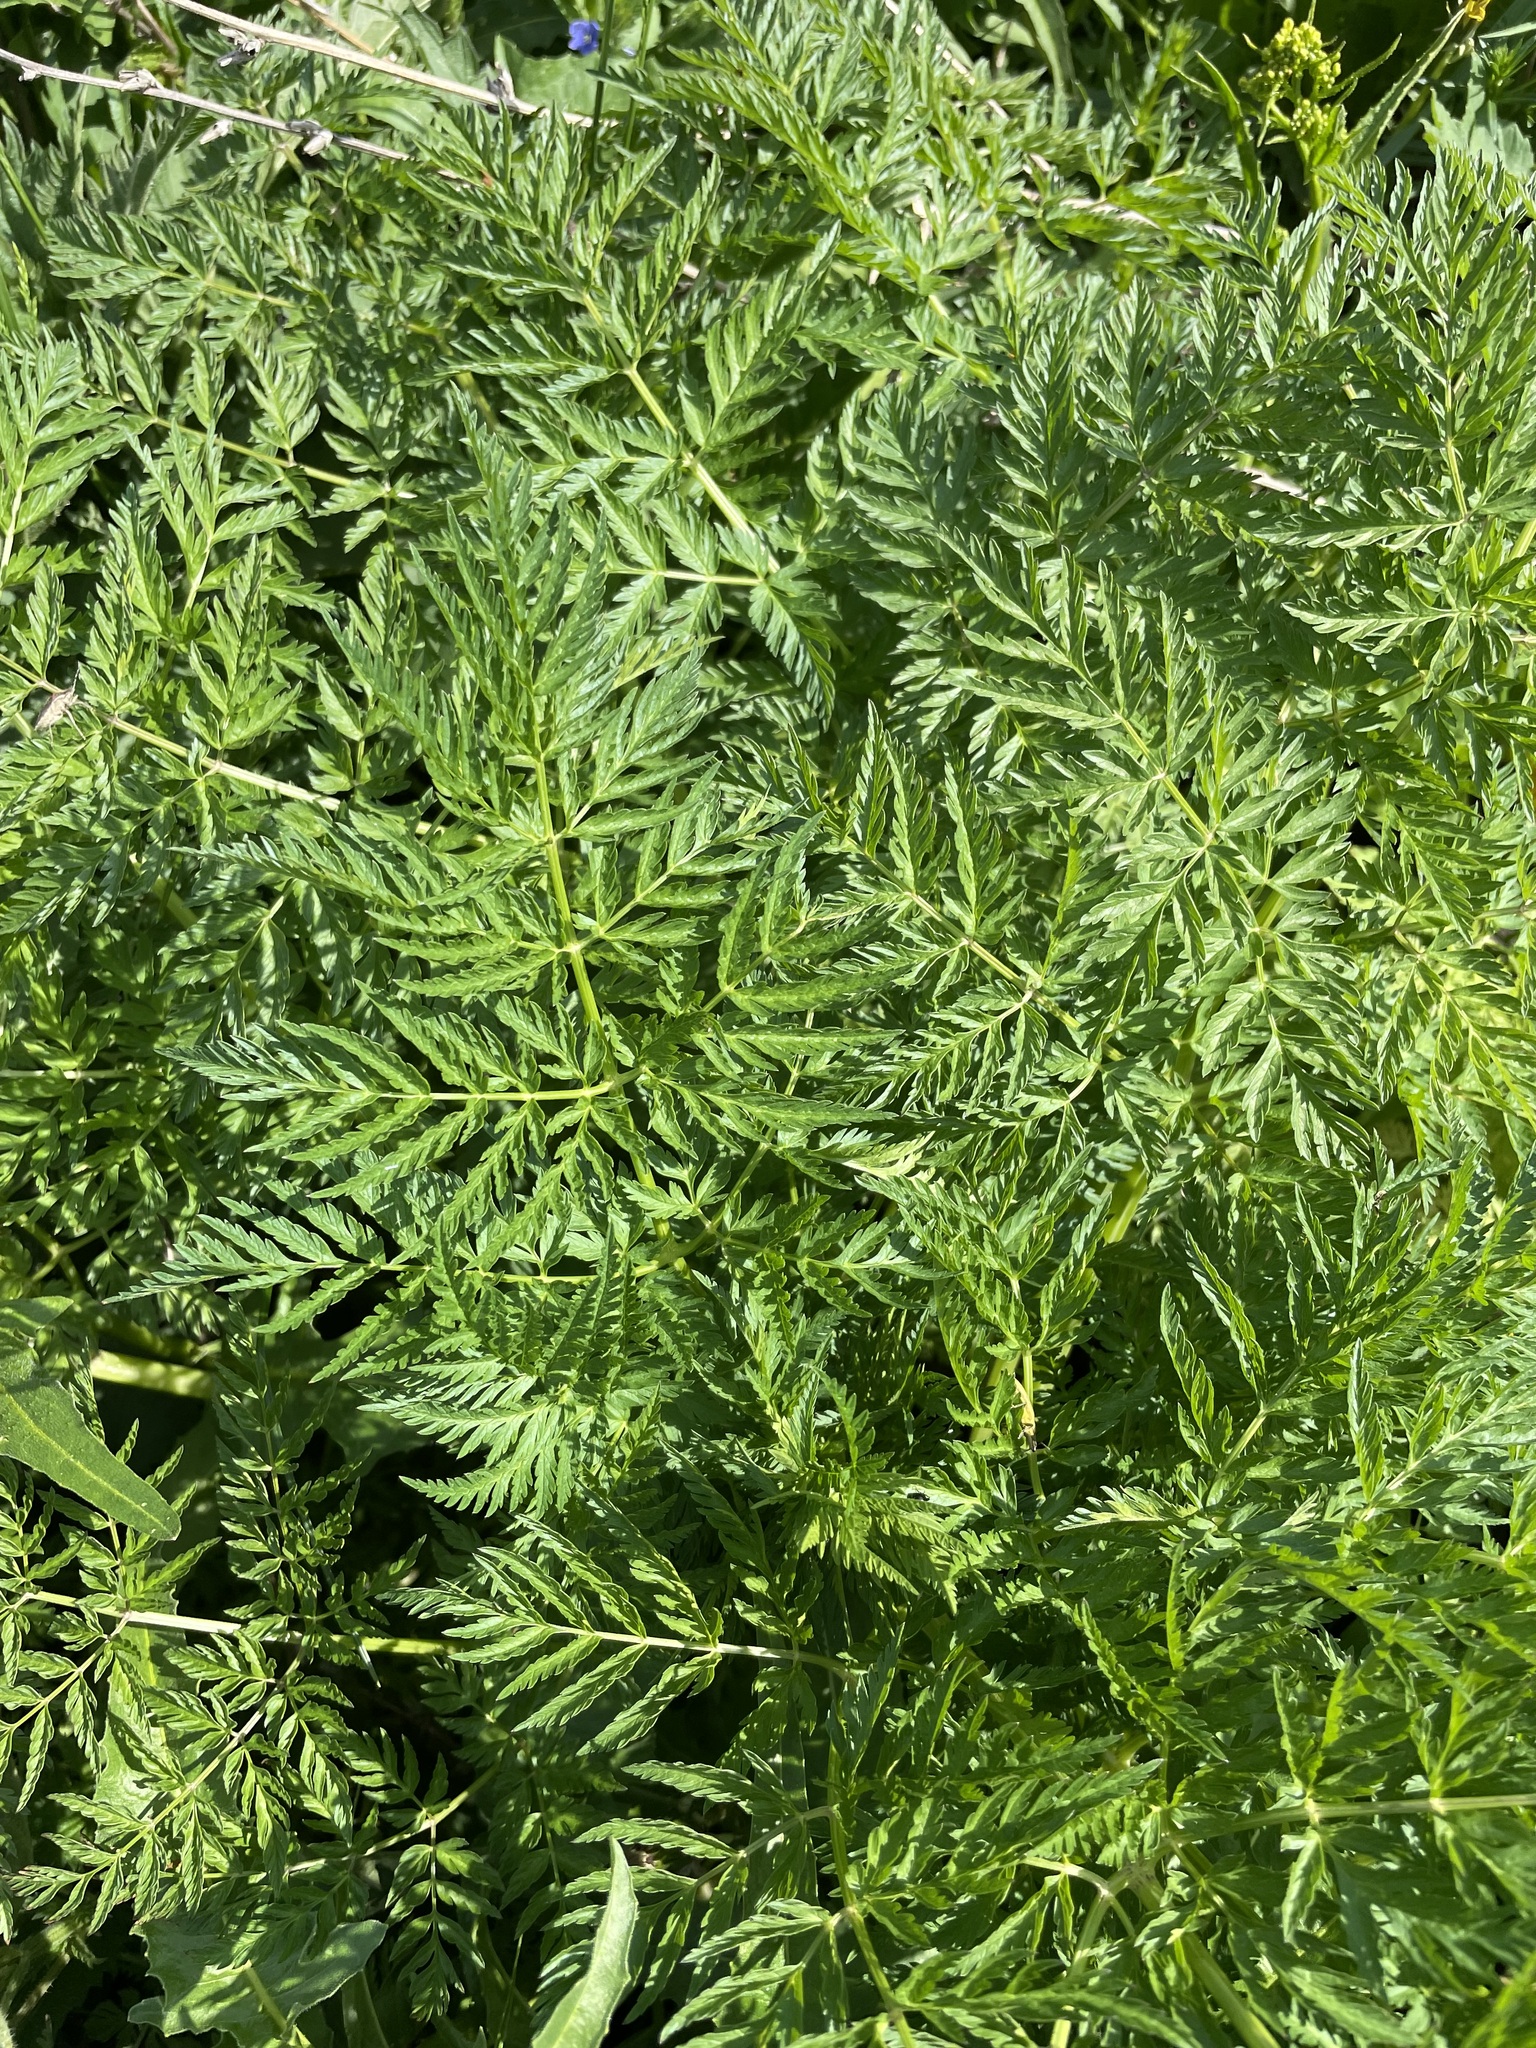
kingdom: Plantae
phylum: Tracheophyta
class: Magnoliopsida
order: Apiales
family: Apiaceae
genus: Anthriscus
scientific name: Anthriscus sylvestris
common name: Cow parsley
